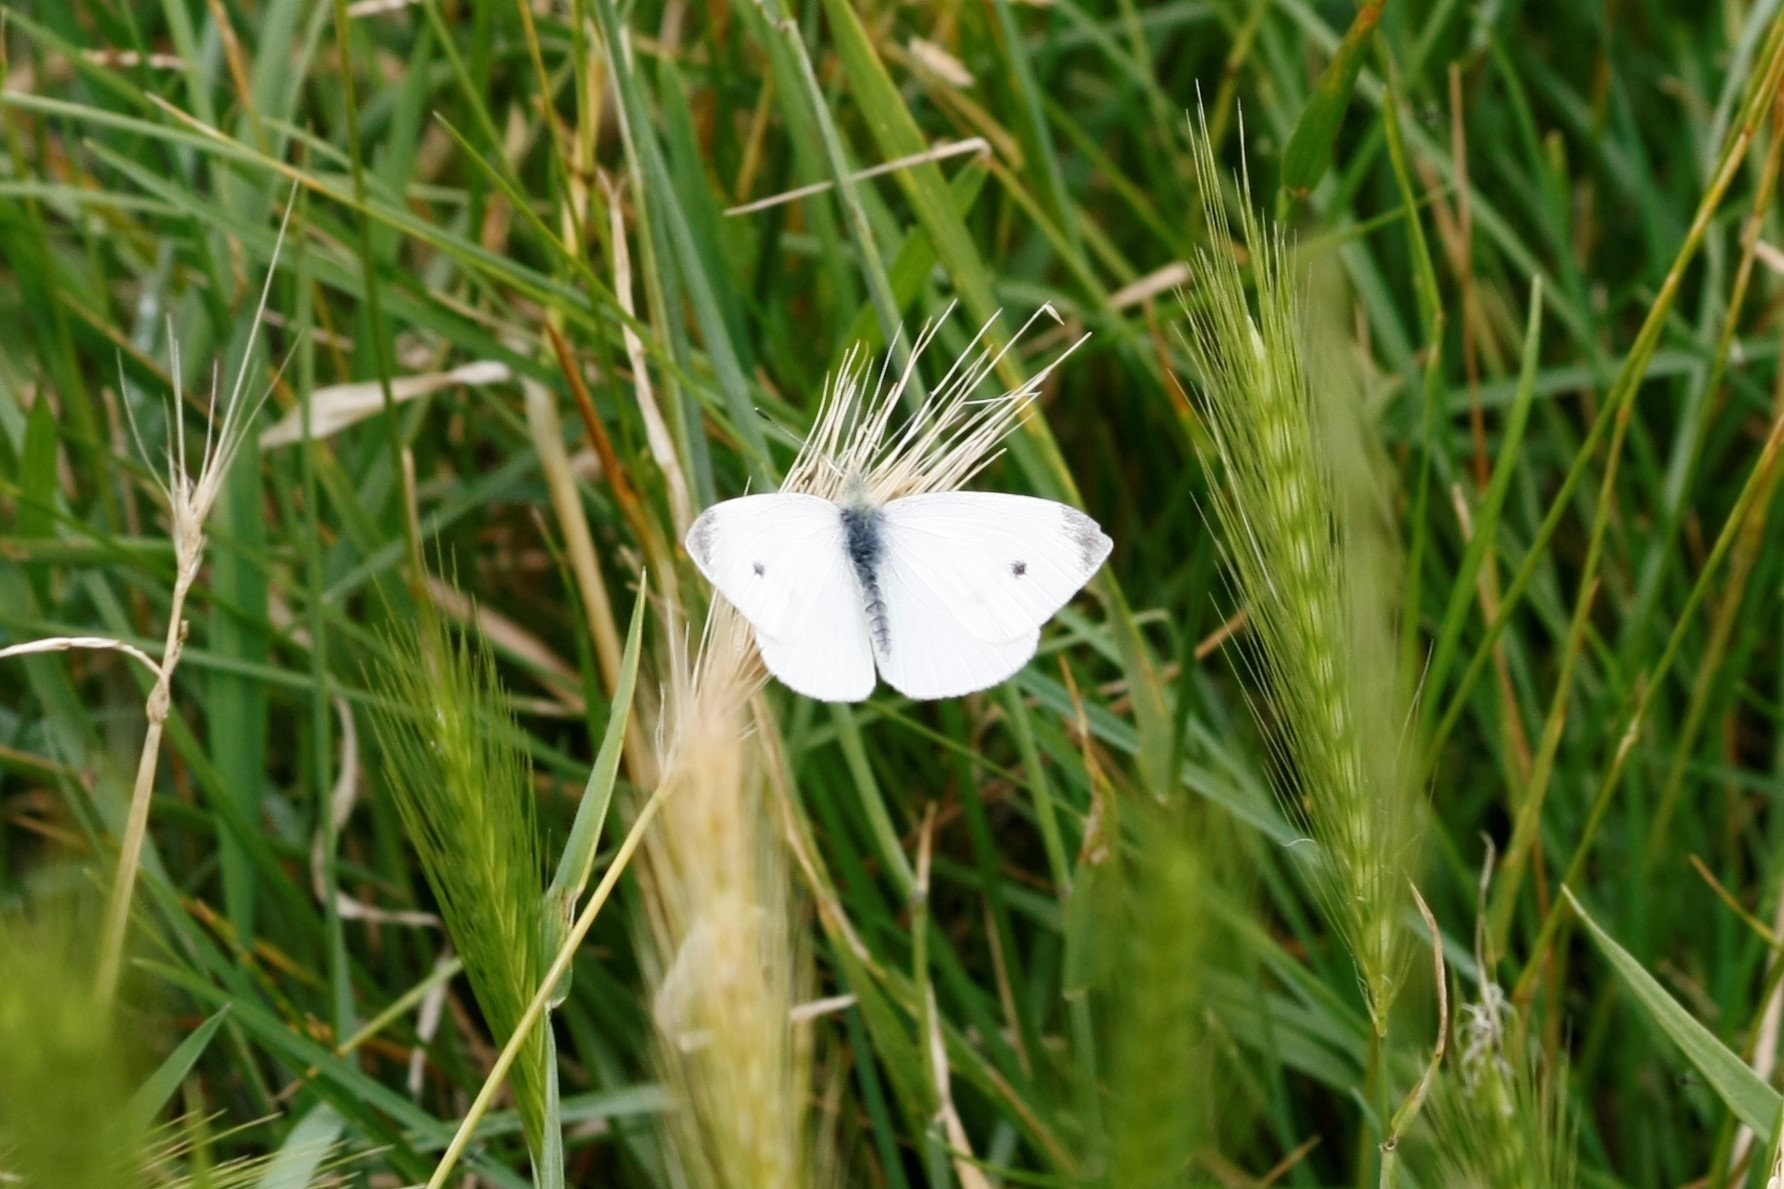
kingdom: Animalia
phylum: Arthropoda
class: Insecta
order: Lepidoptera
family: Pieridae
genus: Pieris
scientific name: Pieris rapae
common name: Small white
